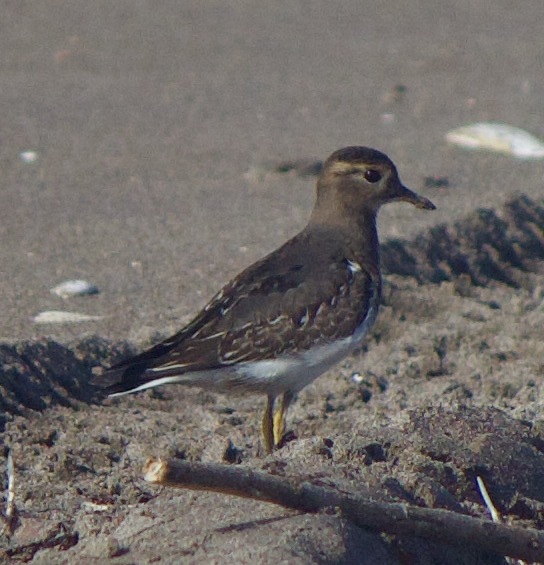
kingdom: Animalia
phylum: Chordata
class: Aves
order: Charadriiformes
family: Charadriidae
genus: Charadrius
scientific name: Charadrius modestus
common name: Rufous-chested plover
